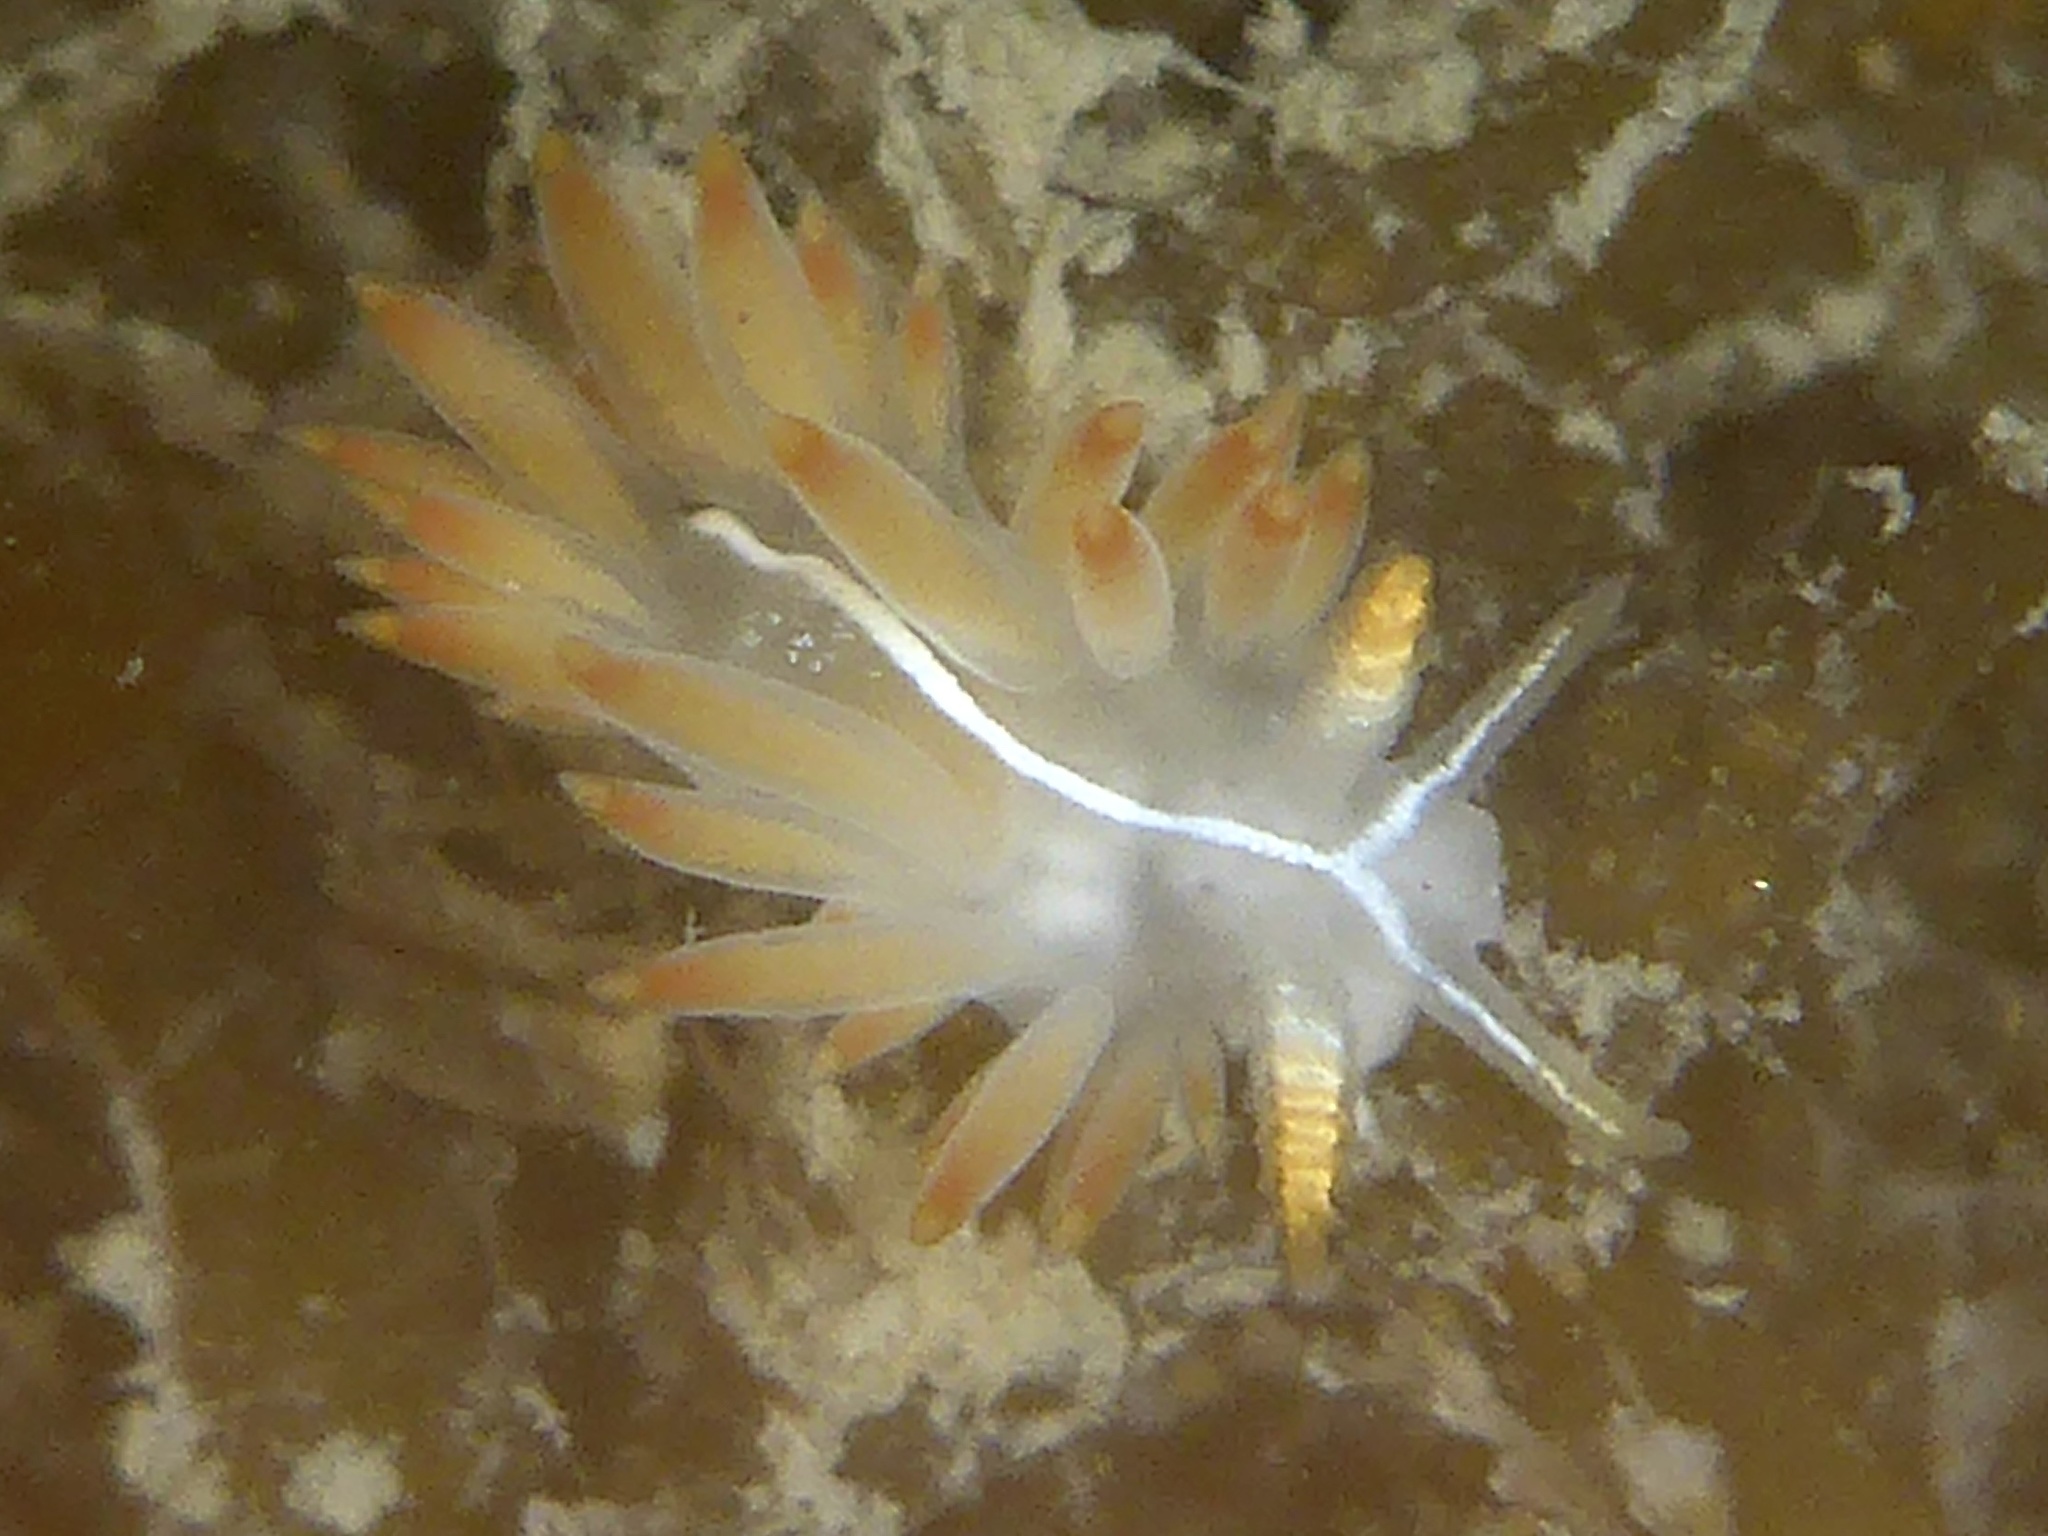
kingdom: Animalia
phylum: Mollusca
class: Gastropoda
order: Nudibranchia
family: Coryphellidae
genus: Coryphella
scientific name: Coryphella trilineata
